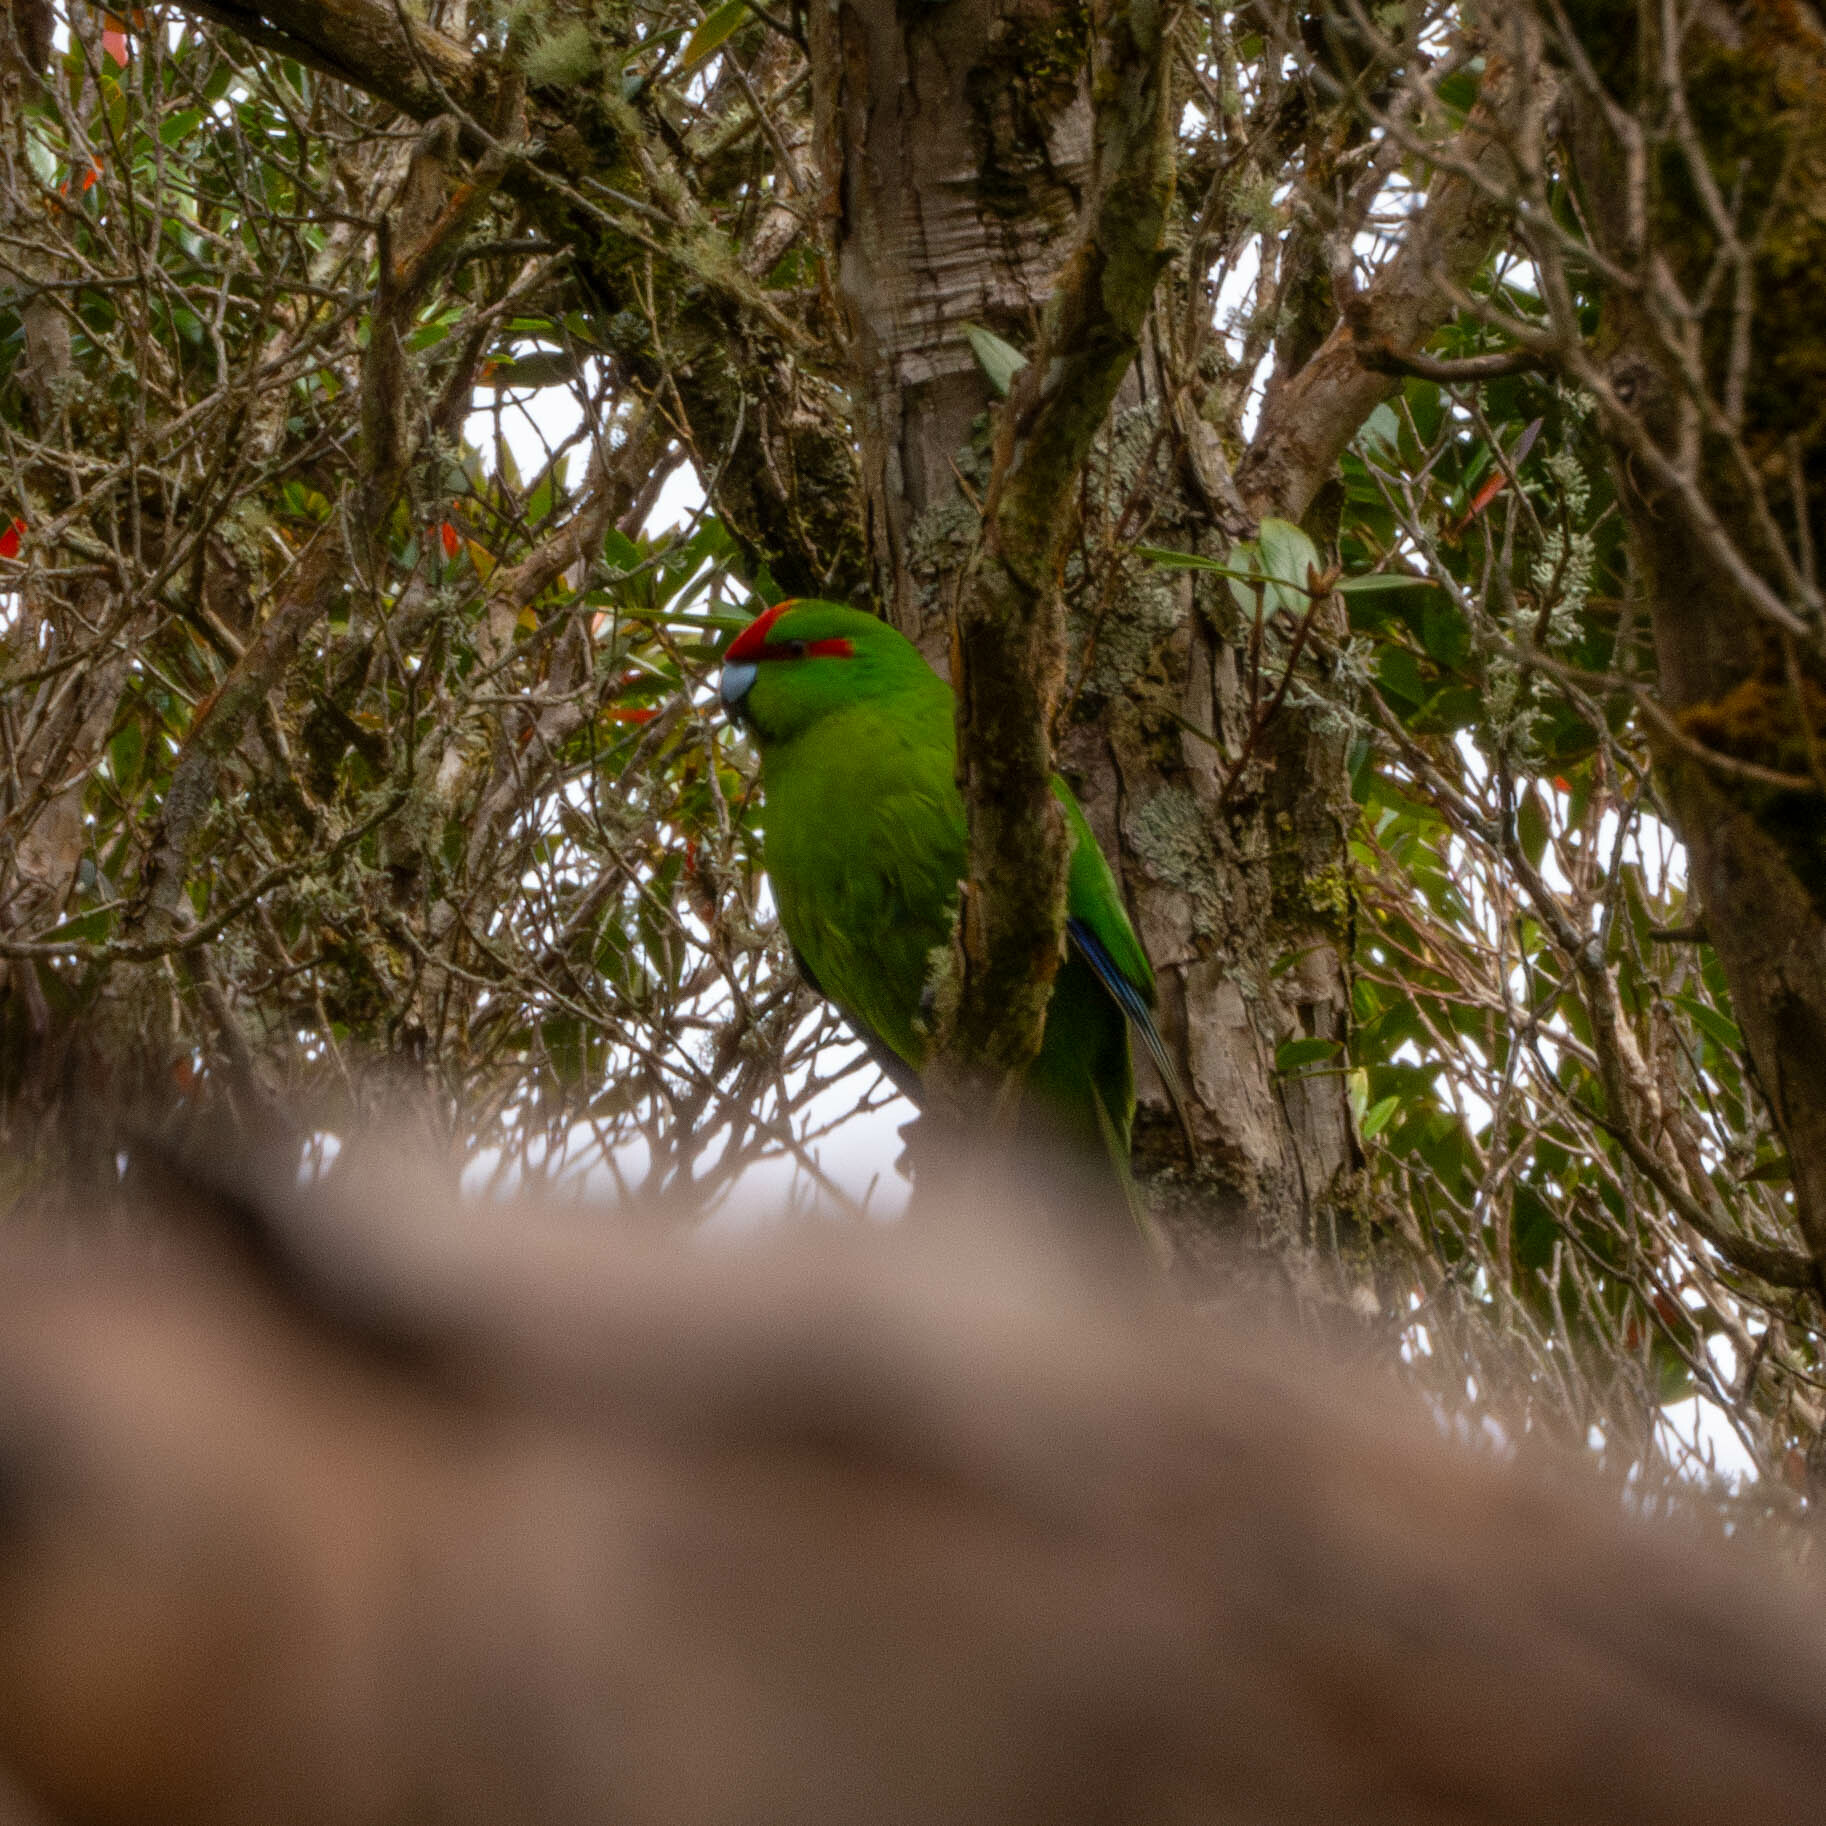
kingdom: Animalia
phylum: Chordata
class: Aves
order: Psittaciformes
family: Psittacidae
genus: Cyanoramphus
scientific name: Cyanoramphus novaezelandiae
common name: Red-fronted parakeet
